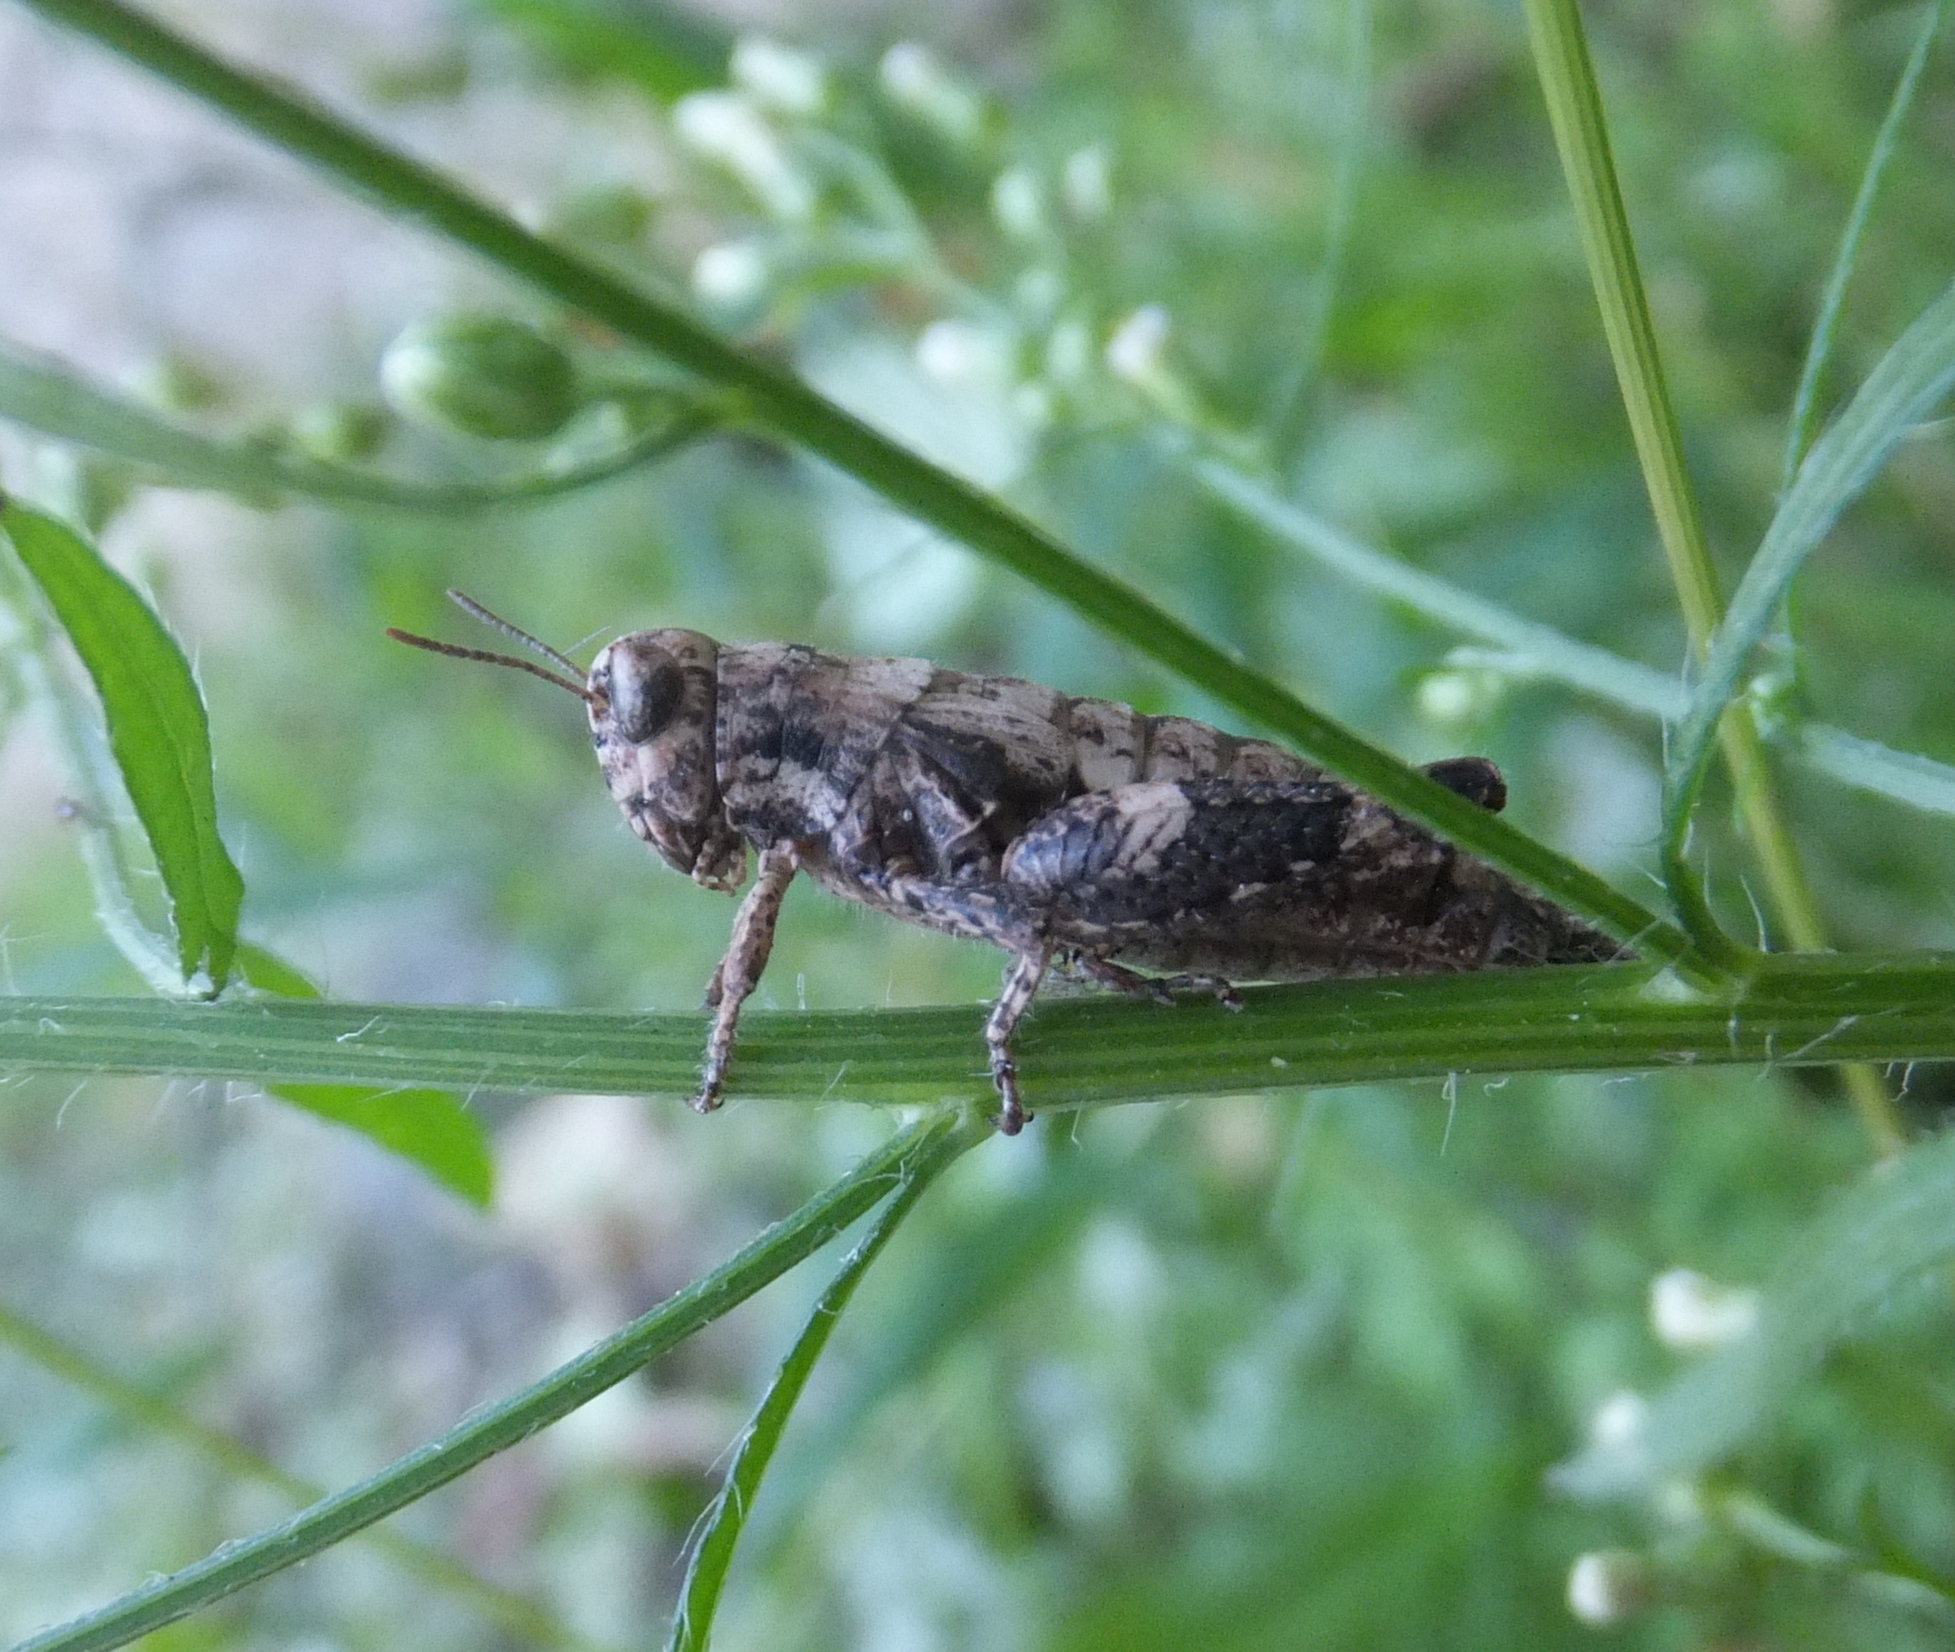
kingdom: Animalia
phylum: Arthropoda
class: Insecta
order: Orthoptera
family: Acrididae
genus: Pezotettix
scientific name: Pezotettix giornae
